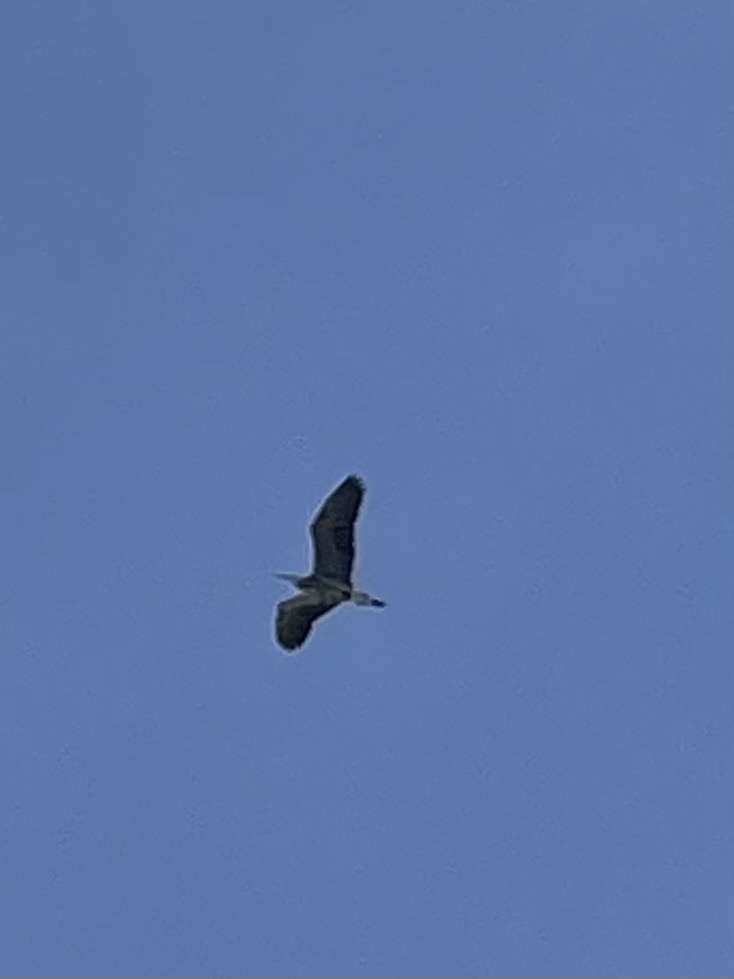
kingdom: Animalia
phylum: Chordata
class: Aves
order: Pelecaniformes
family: Ardeidae
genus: Ardea
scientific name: Ardea herodias
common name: Great blue heron
